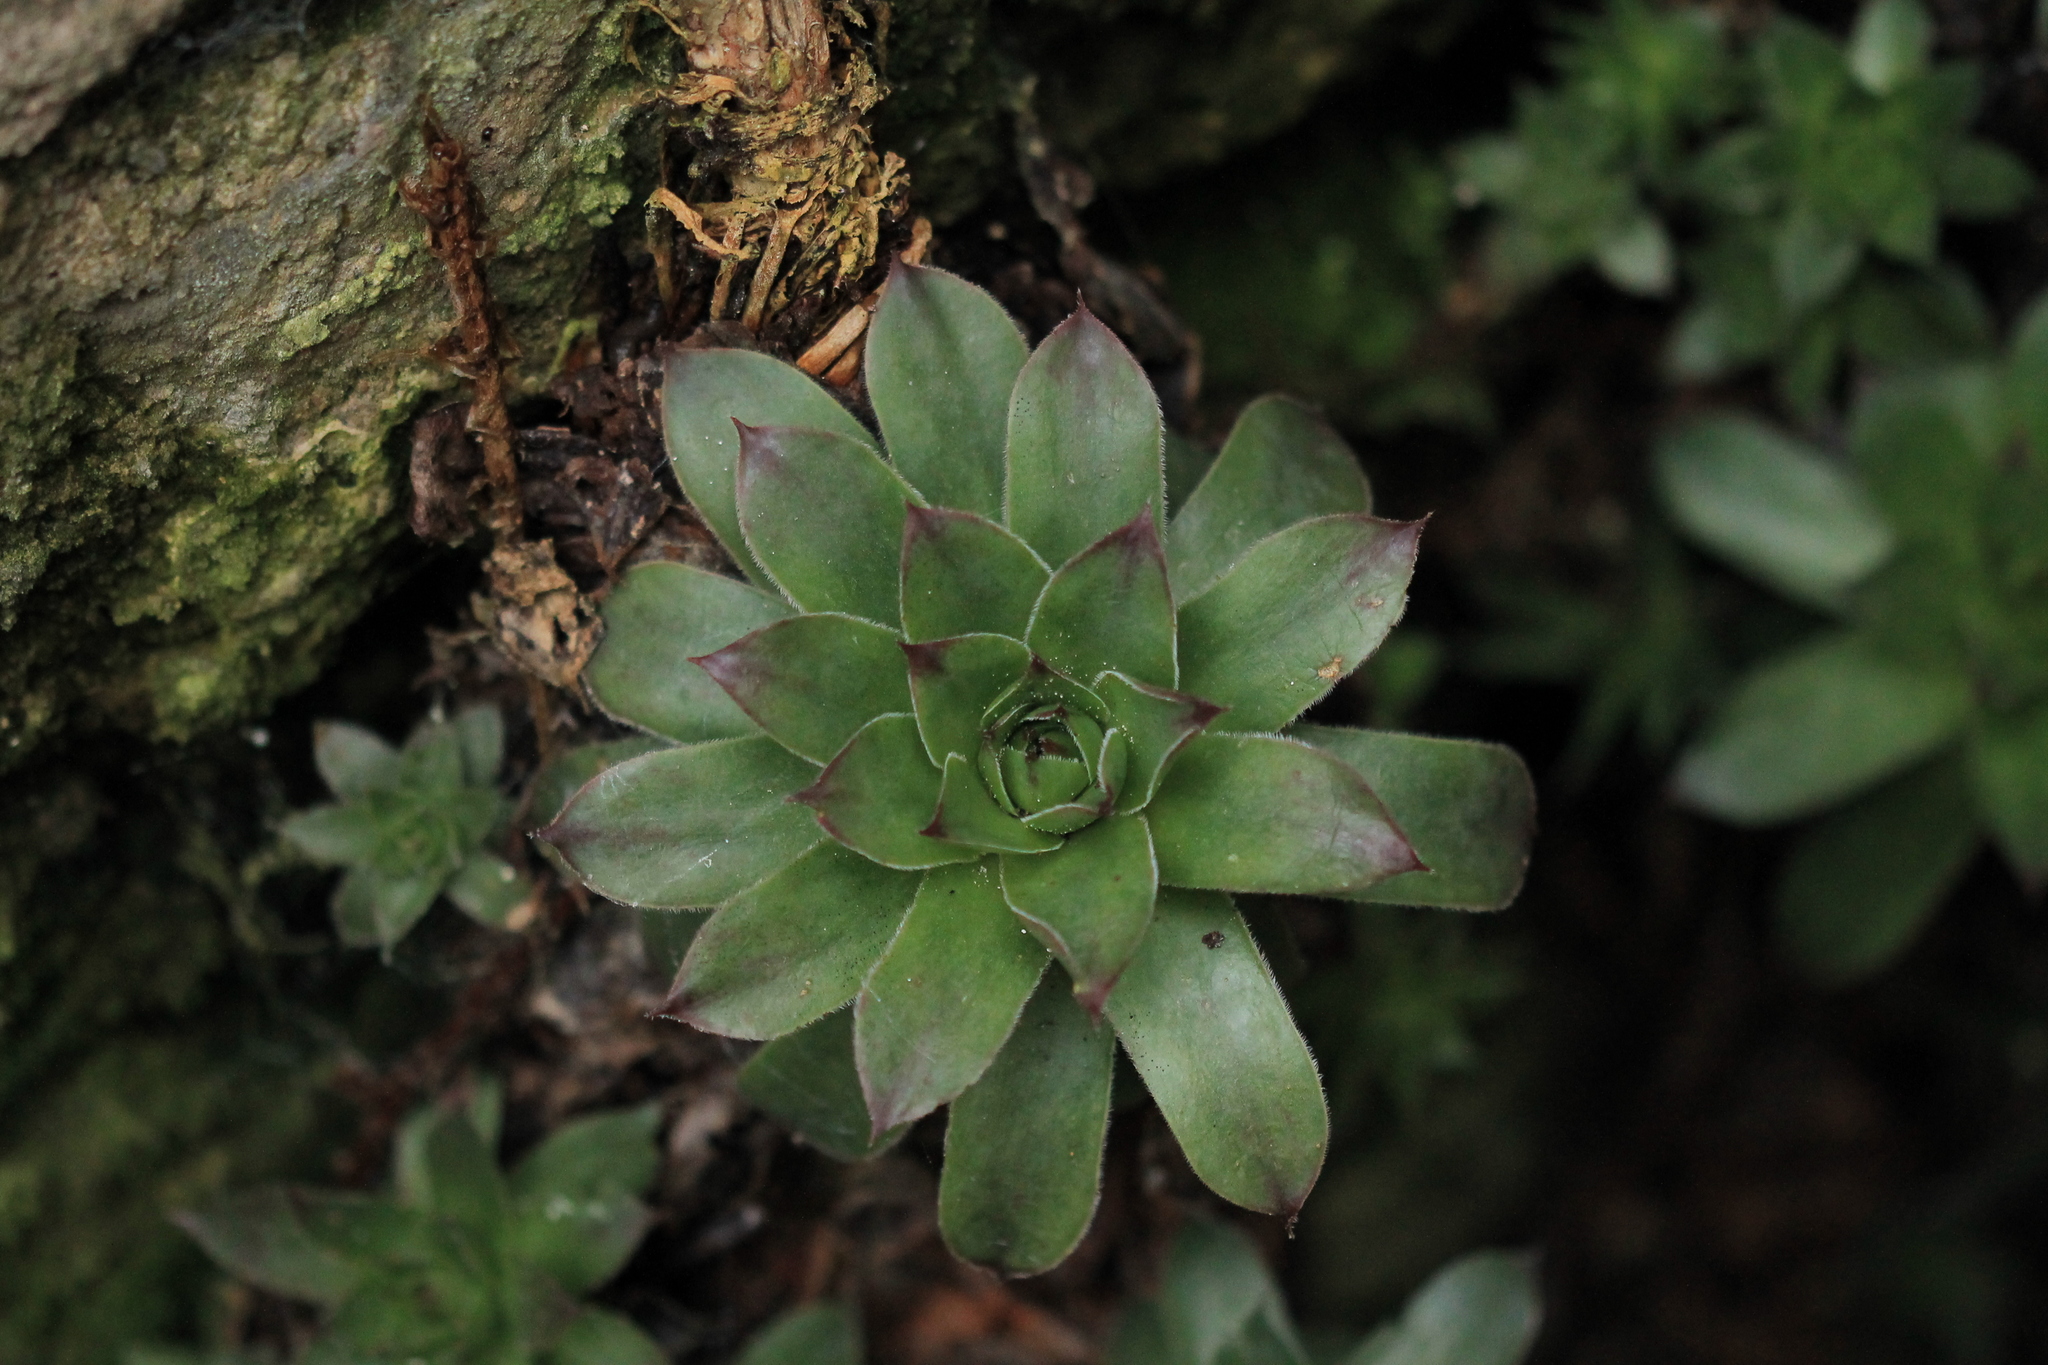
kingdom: Plantae
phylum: Tracheophyta
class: Magnoliopsida
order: Saxifragales
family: Crassulaceae
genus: Sempervivum
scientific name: Sempervivum tectorum
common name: House-leek
